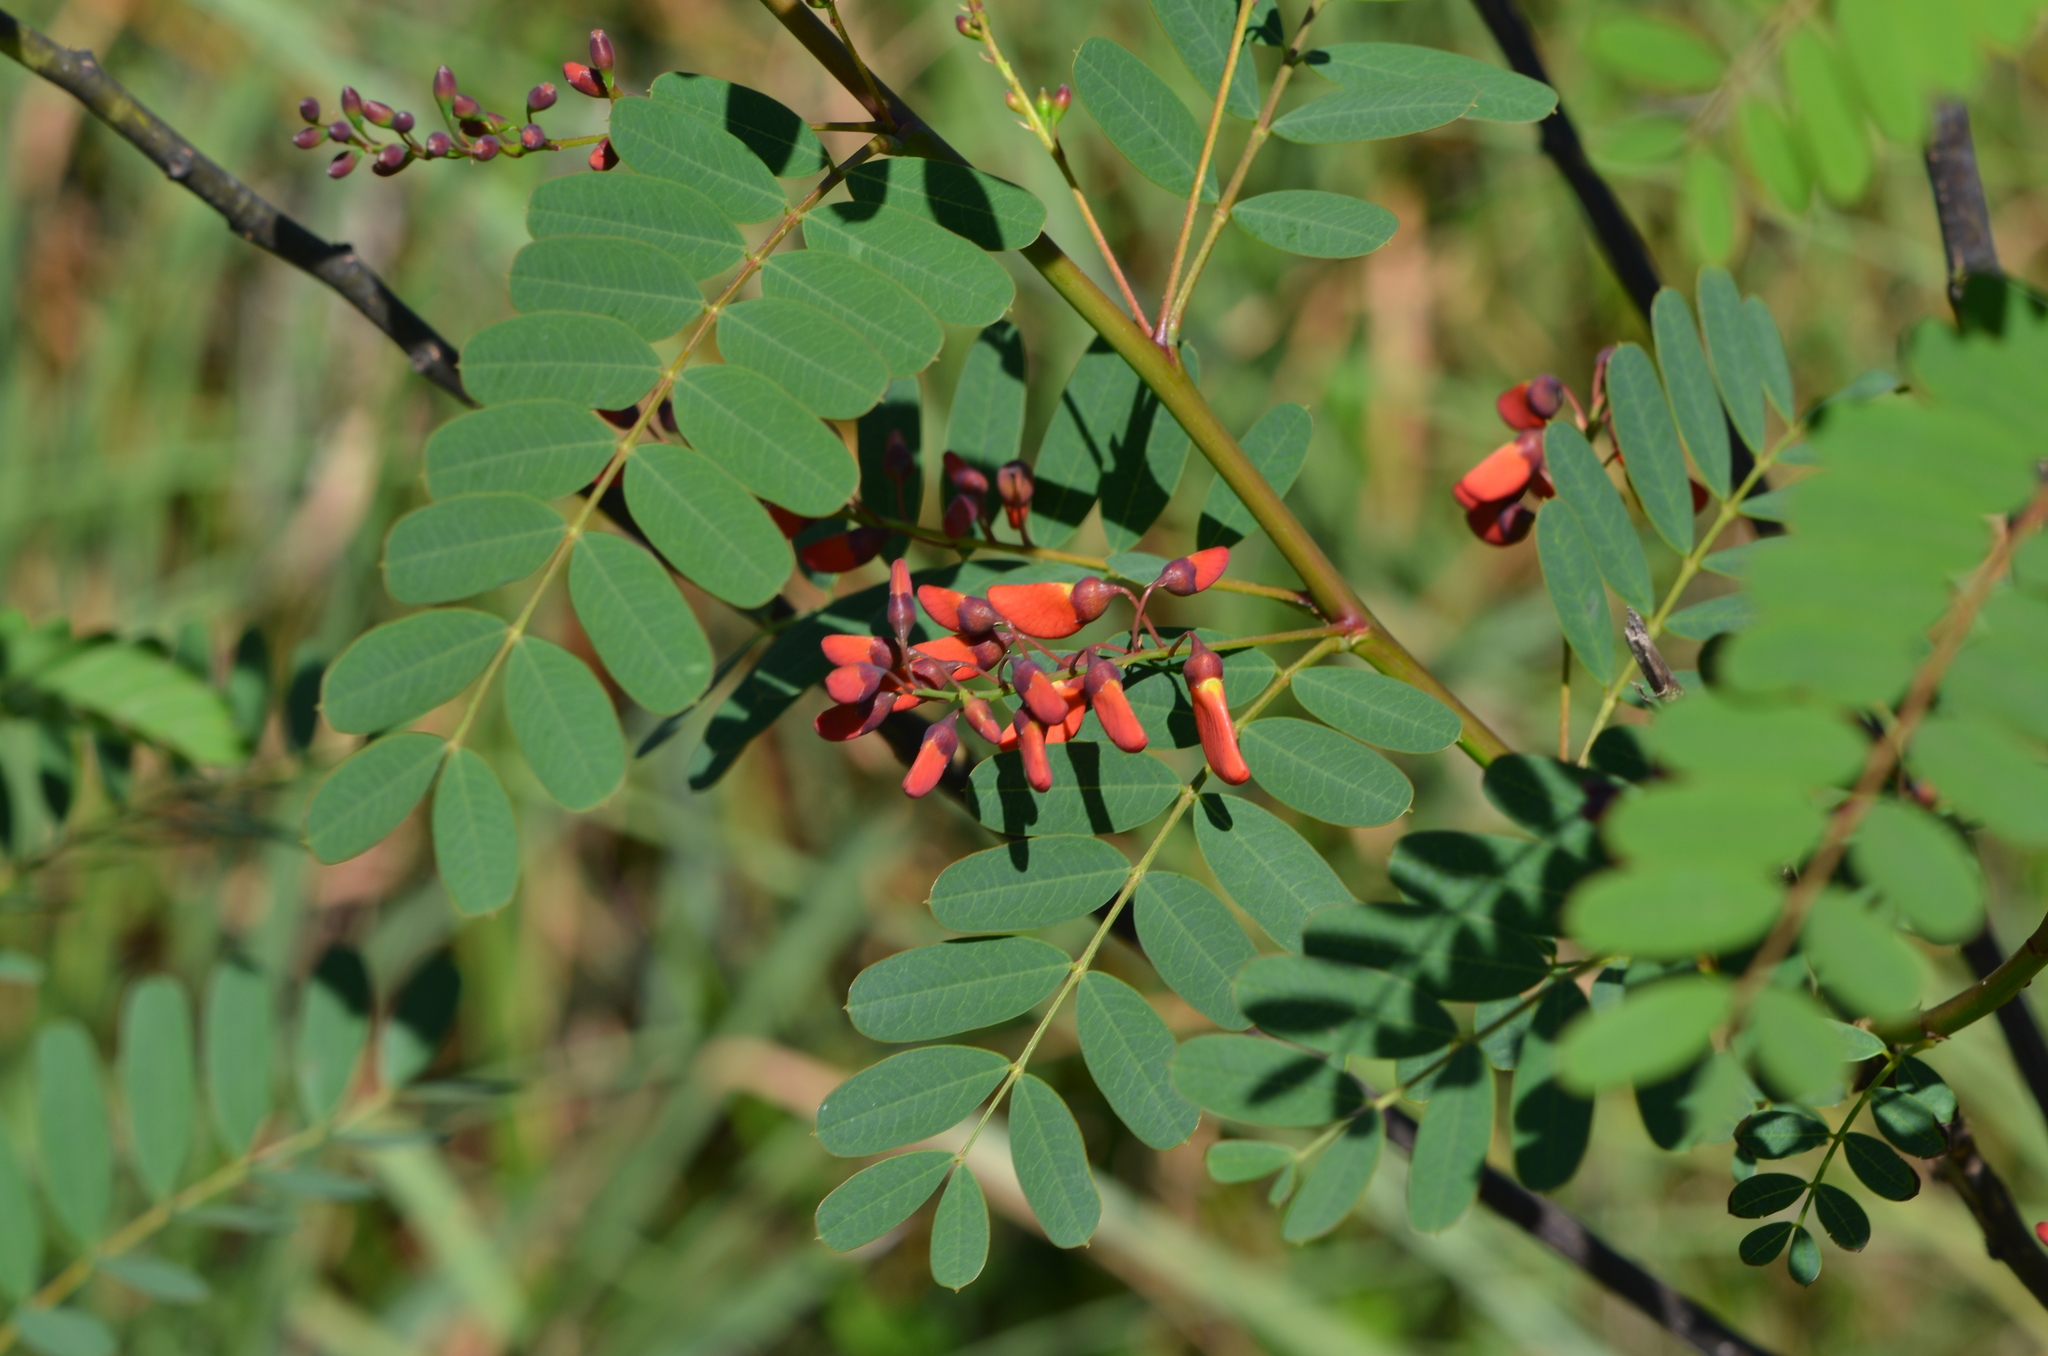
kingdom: Plantae
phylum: Tracheophyta
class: Magnoliopsida
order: Fabales
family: Fabaceae
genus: Sesbania
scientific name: Sesbania punicea
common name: Rattlebox
